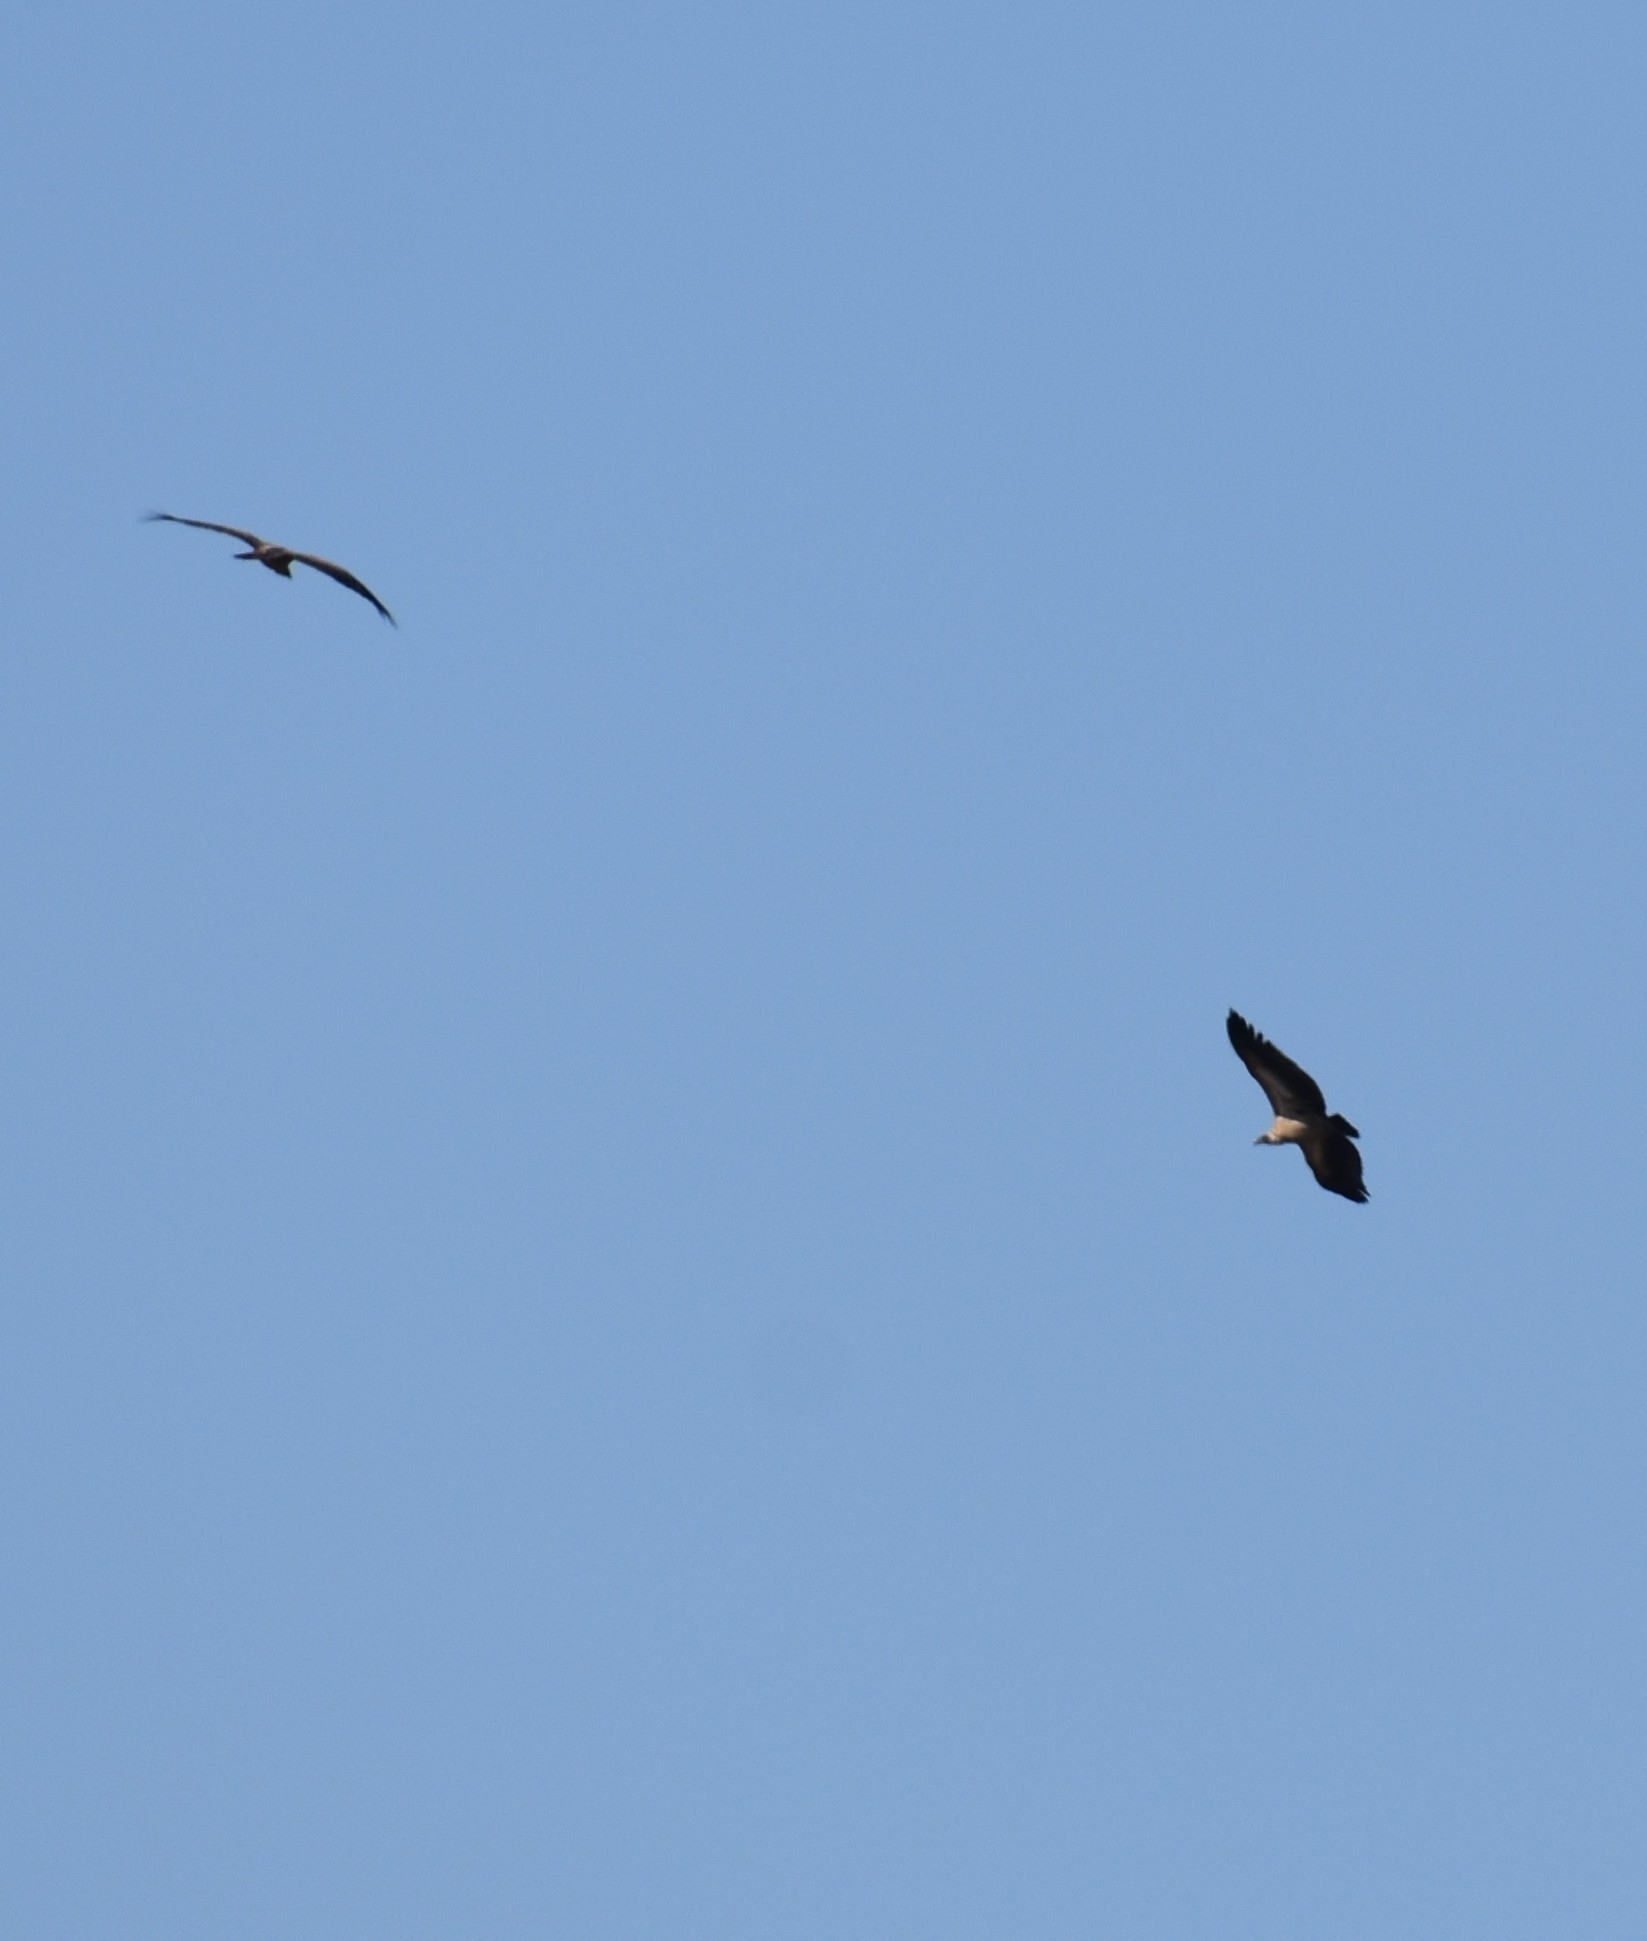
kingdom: Animalia
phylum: Chordata
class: Aves
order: Accipitriformes
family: Accipitridae
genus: Gyps
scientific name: Gyps africanus
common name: White-backed vulture
